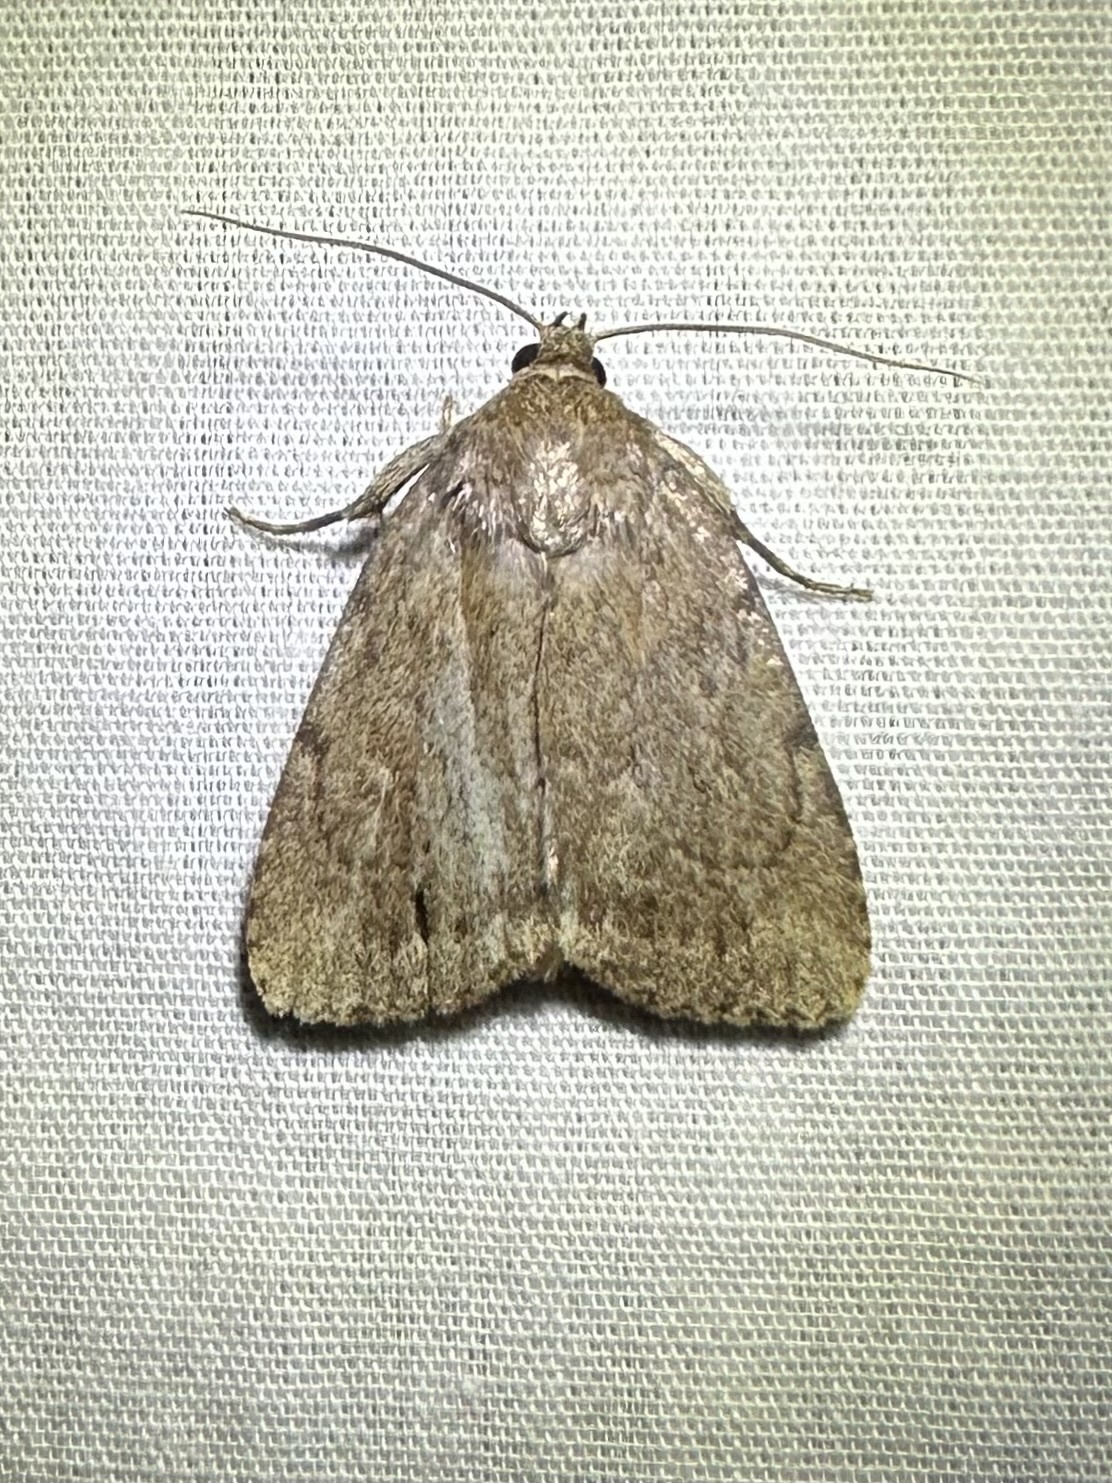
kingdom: Animalia
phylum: Arthropoda
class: Insecta
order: Lepidoptera
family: Noctuidae
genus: Amphipyra
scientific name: Amphipyra glabella
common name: Smooth amphipyra moth
